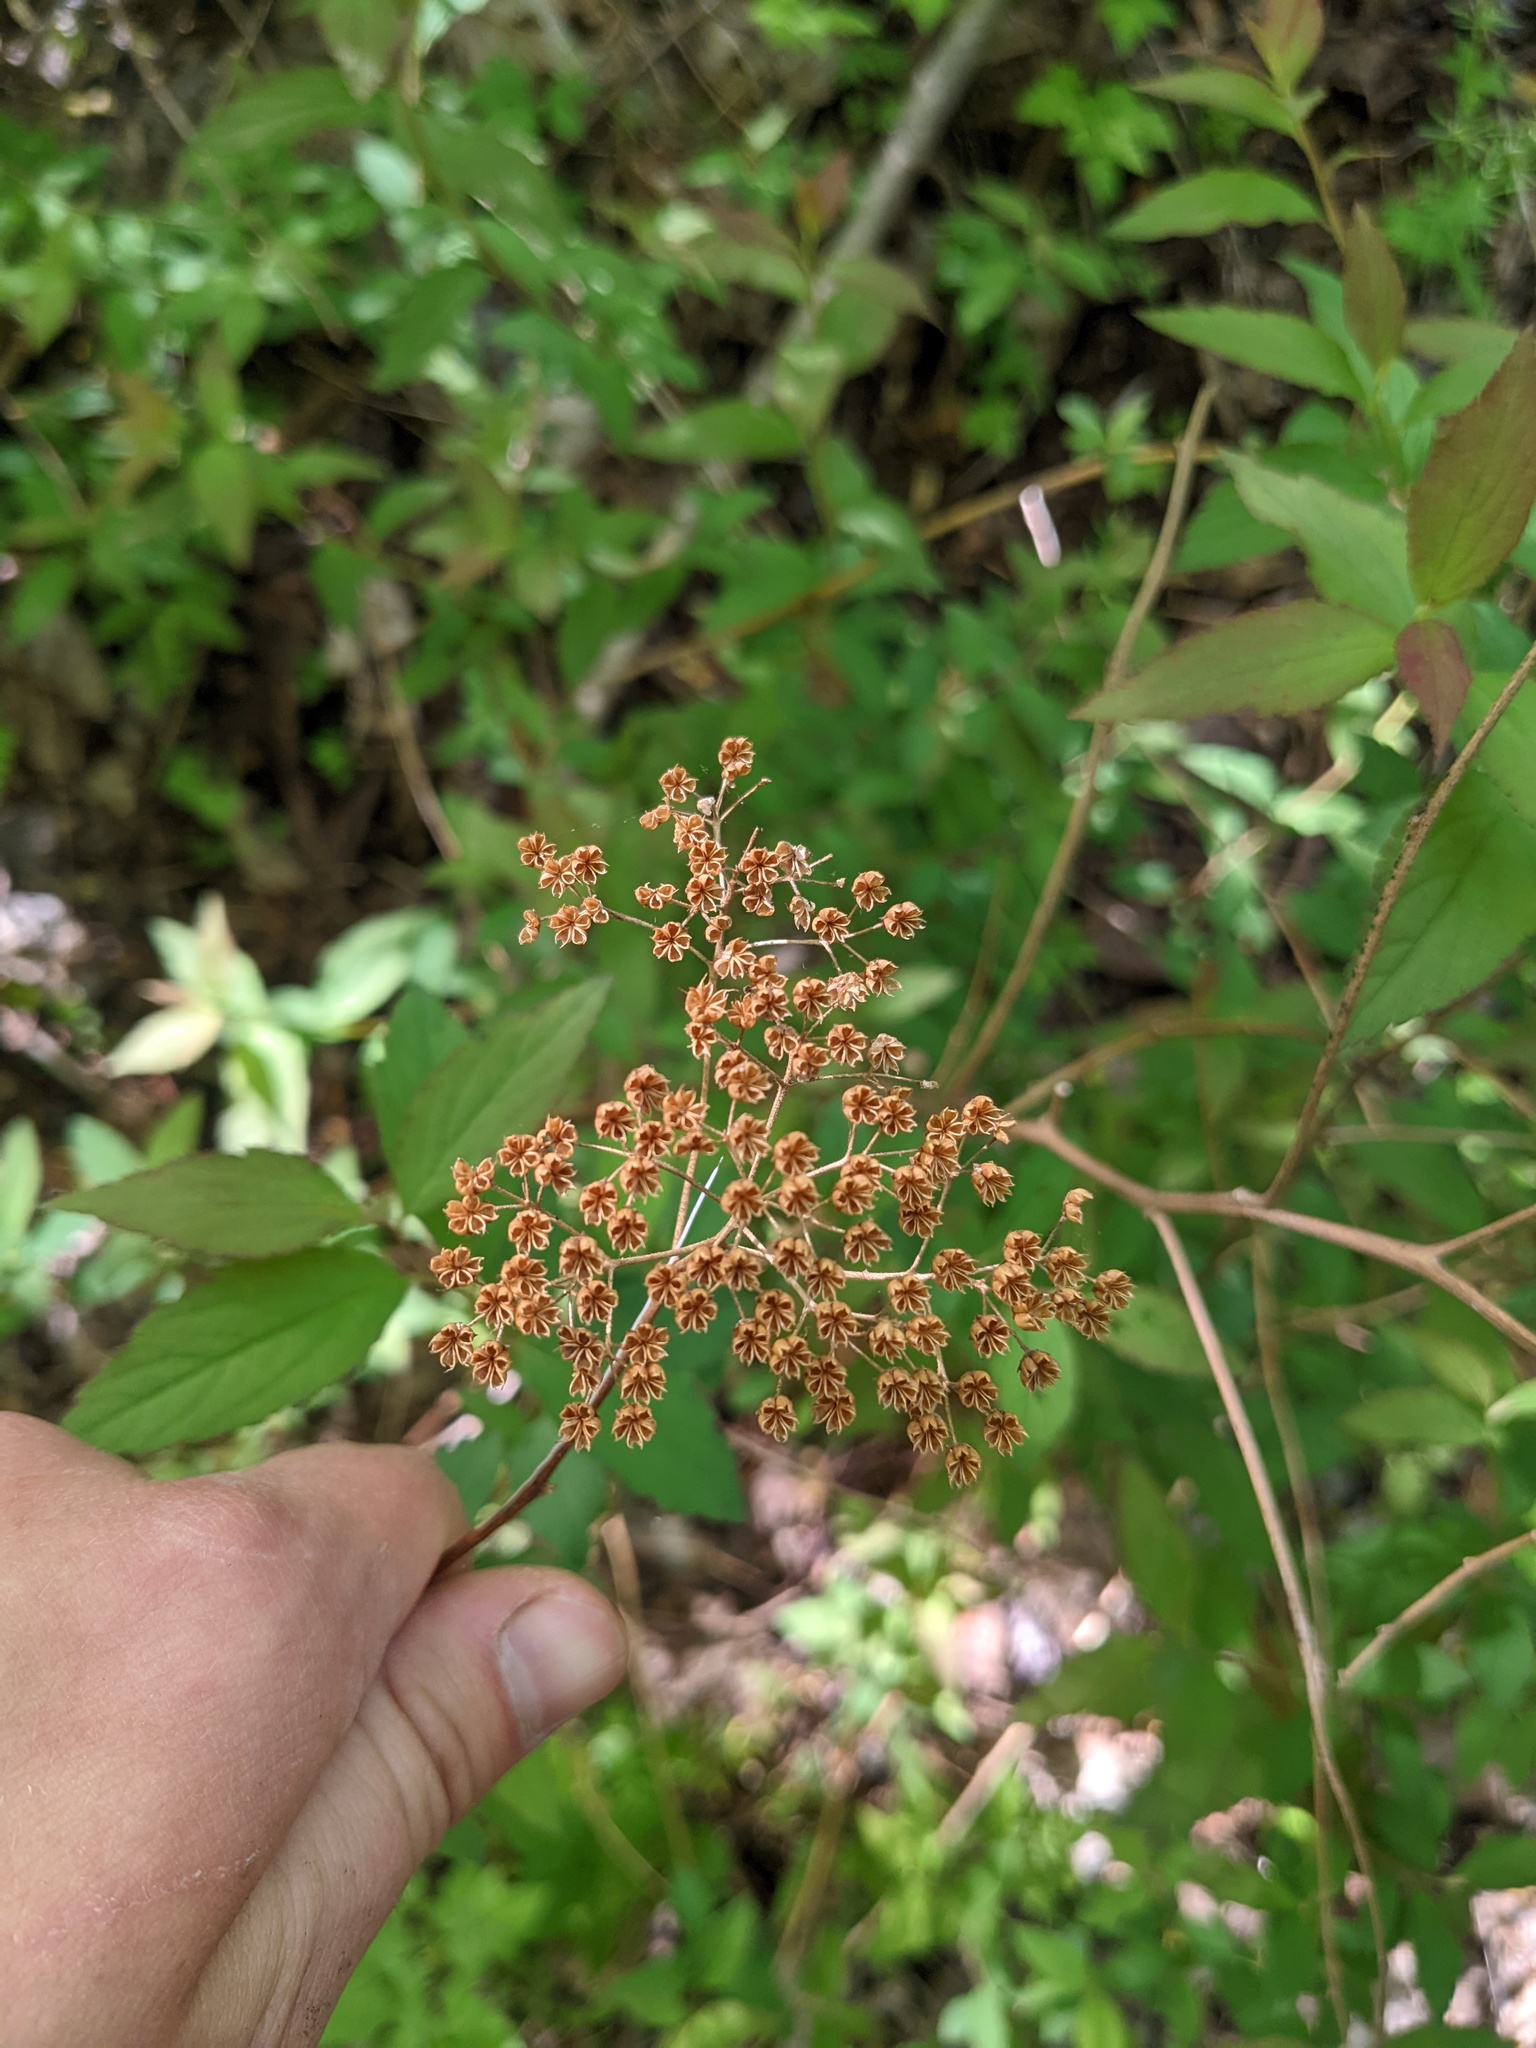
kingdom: Plantae
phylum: Tracheophyta
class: Magnoliopsida
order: Rosales
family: Rosaceae
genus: Spiraea
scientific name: Spiraea japonica
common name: Japanese spiraea
